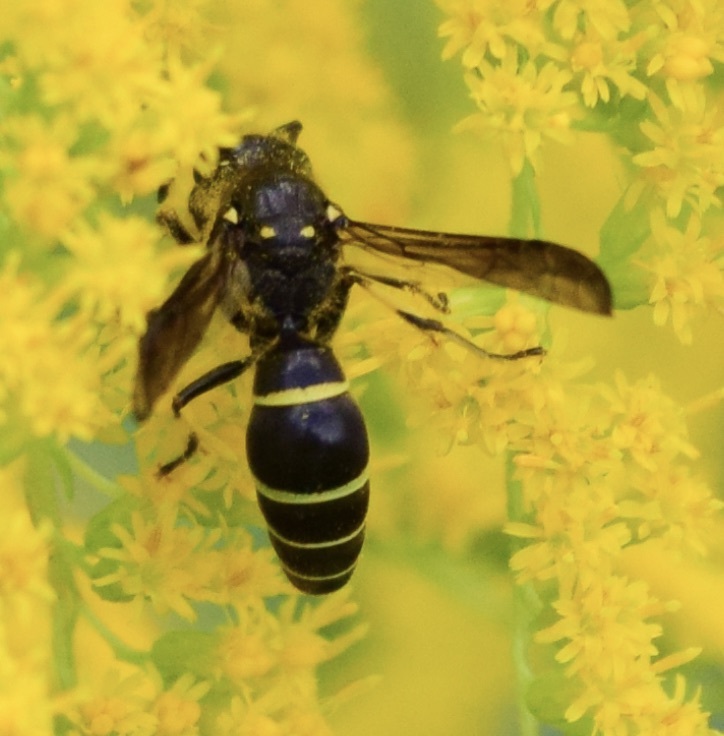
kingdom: Animalia
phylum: Arthropoda
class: Insecta
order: Hymenoptera
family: Vespidae
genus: Ancistrocerus
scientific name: Ancistrocerus
